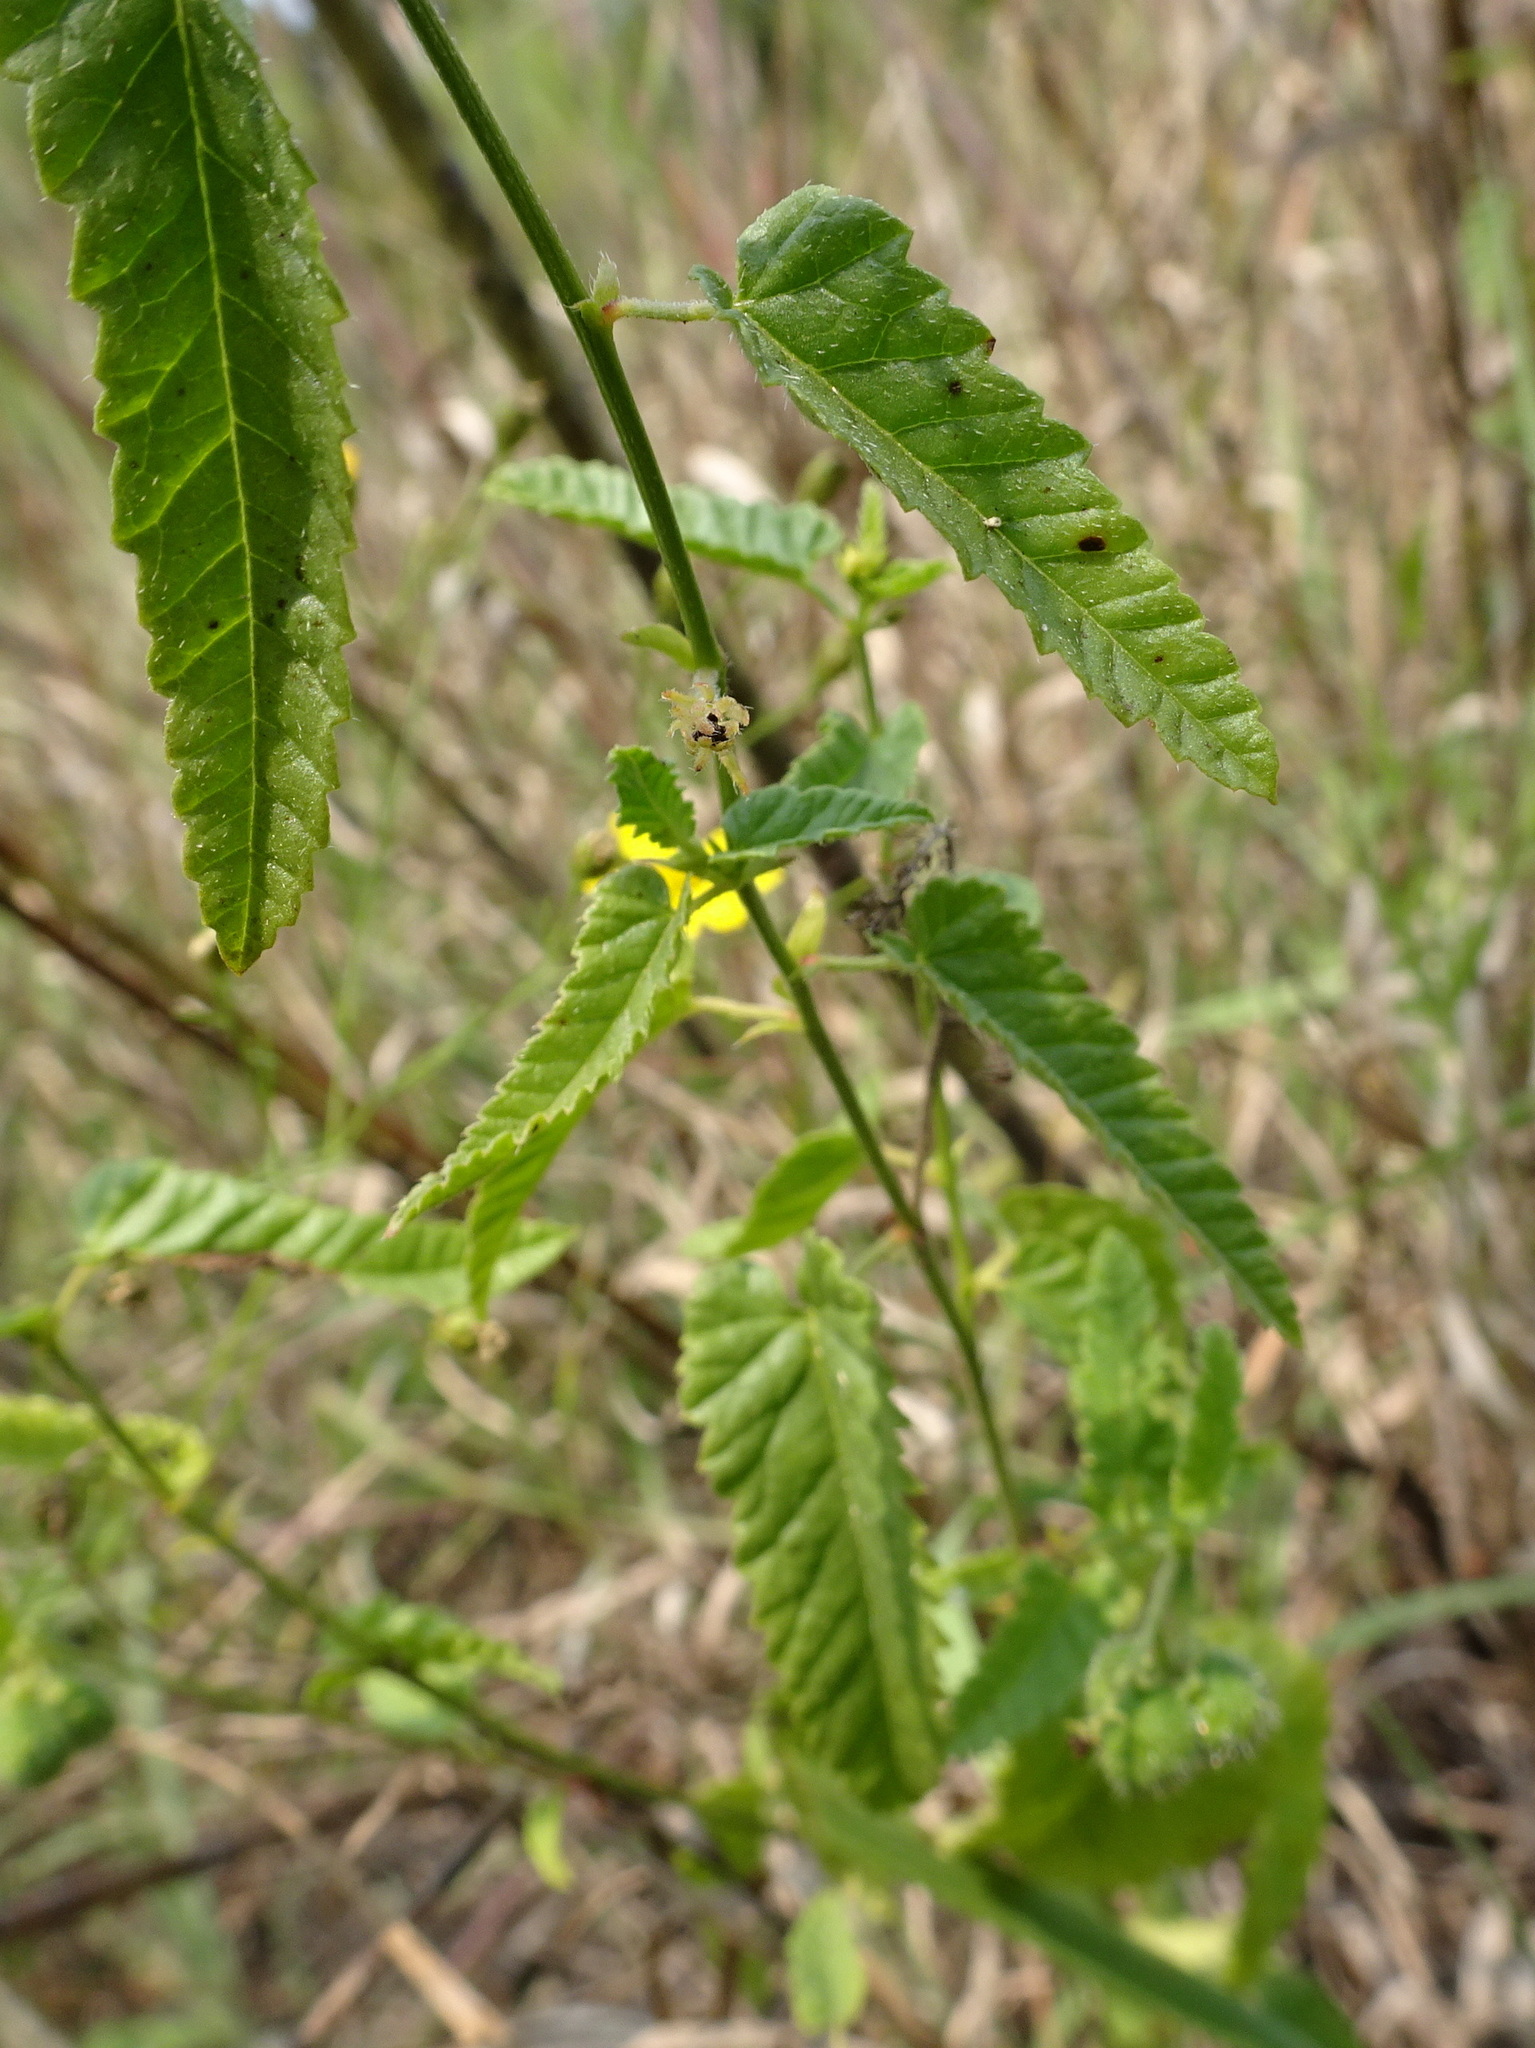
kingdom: Plantae
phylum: Tracheophyta
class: Magnoliopsida
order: Malpighiales
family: Euphorbiaceae
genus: Tragia
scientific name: Tragia betonicifolia
